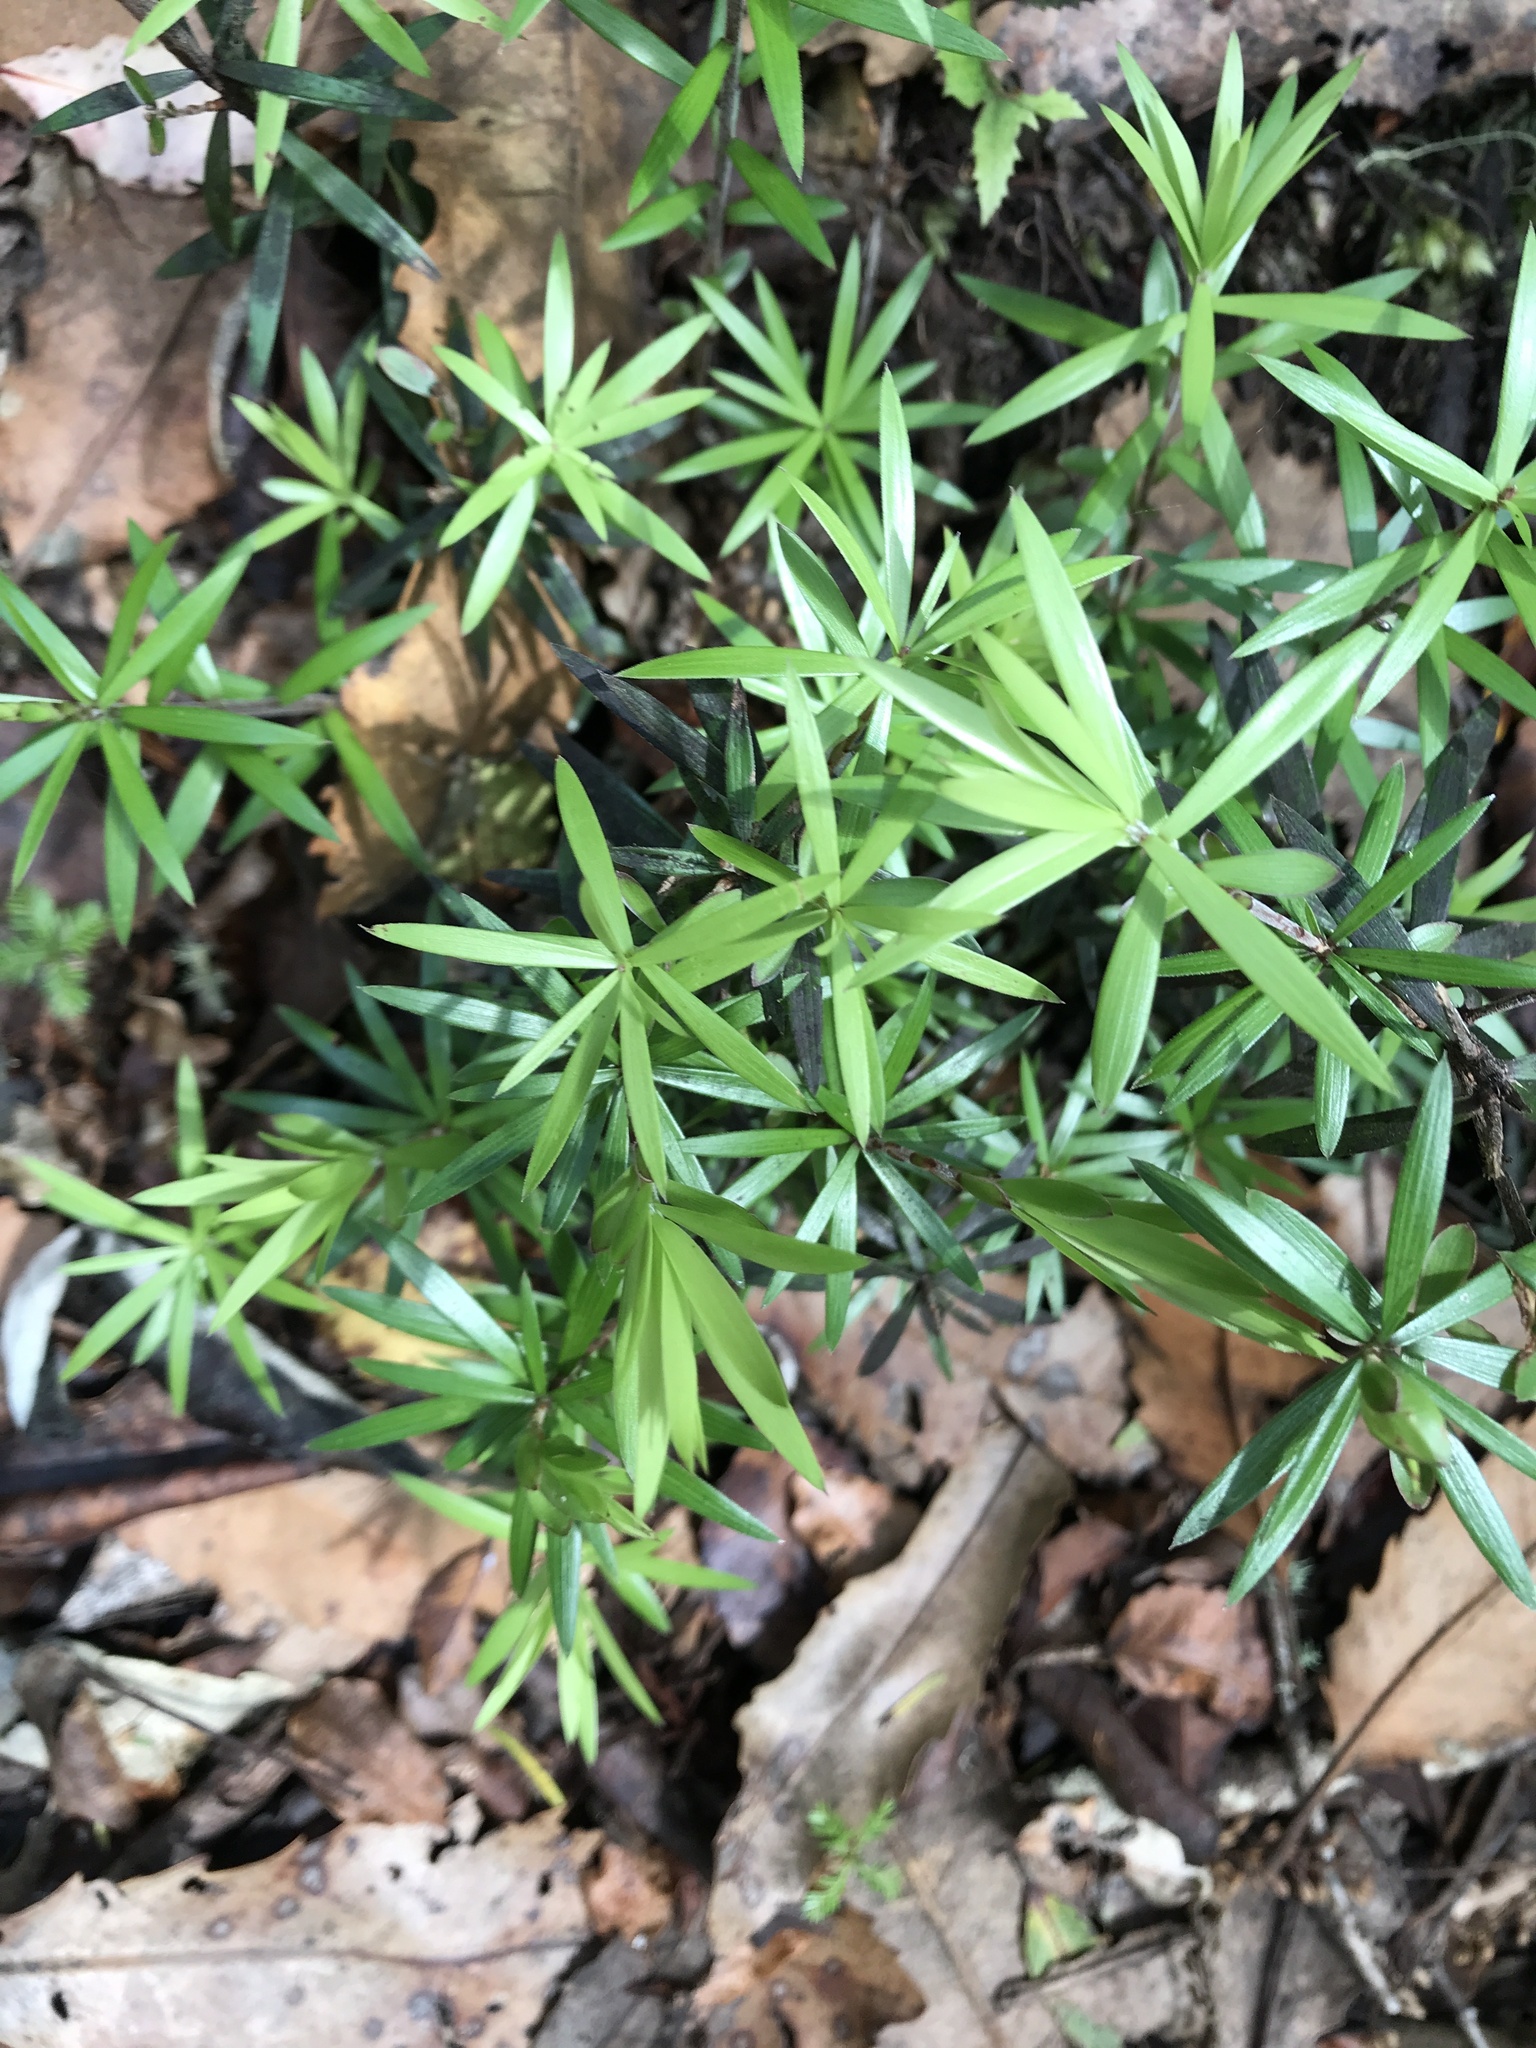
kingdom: Plantae
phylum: Tracheophyta
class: Magnoliopsida
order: Ericales
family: Ericaceae
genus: Leucopogon
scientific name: Leucopogon fasciculatus
